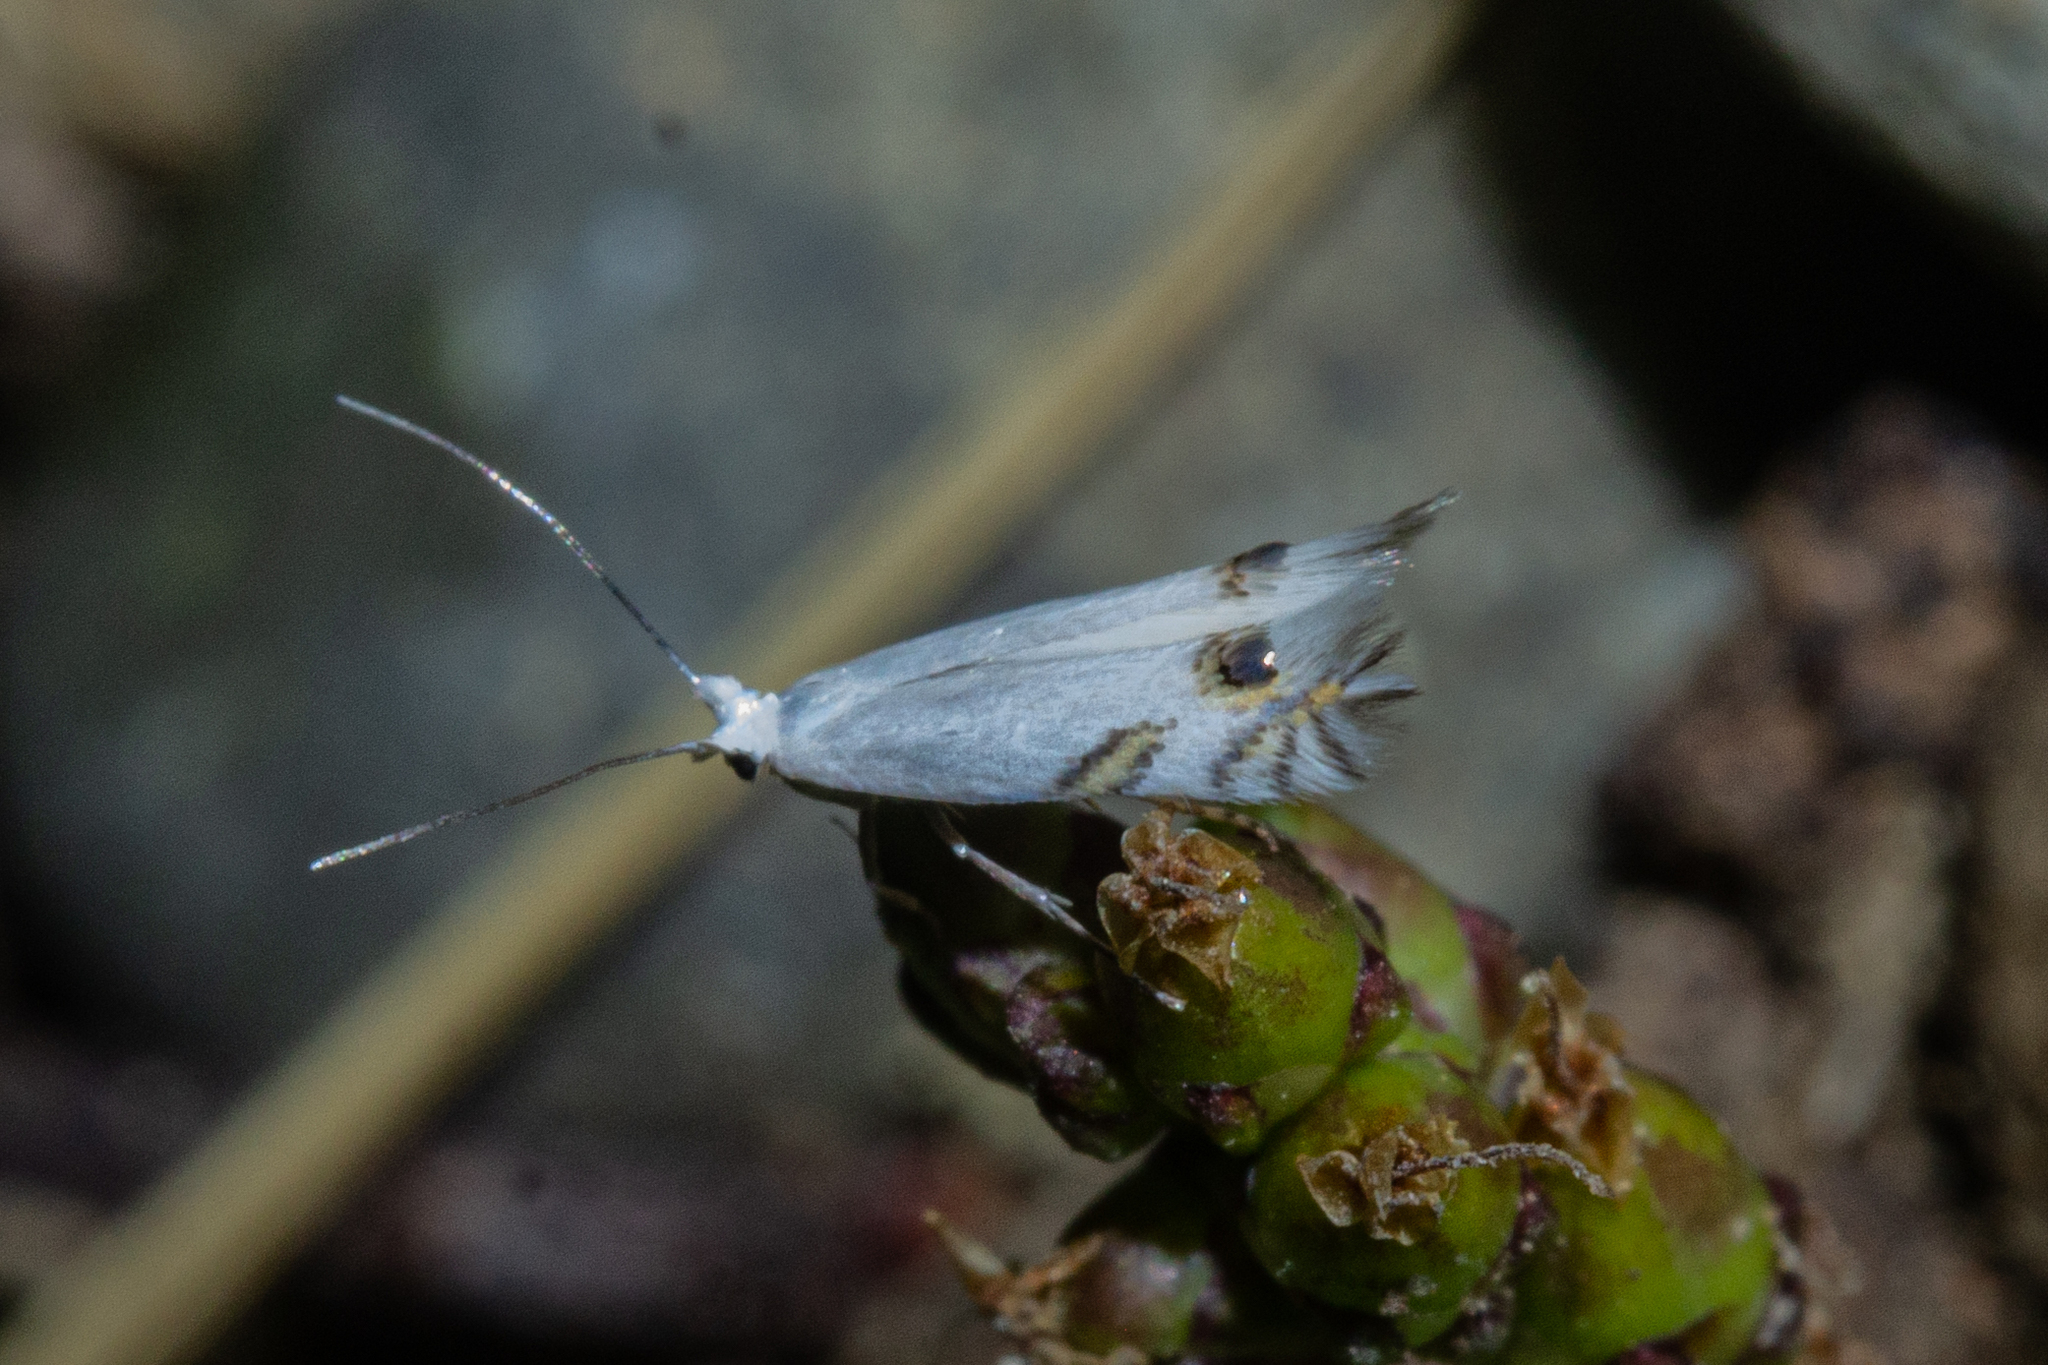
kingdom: Animalia
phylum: Arthropoda
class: Insecta
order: Lepidoptera
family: Lyonetiidae
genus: Leucoptera
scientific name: Leucoptera spartifoliella
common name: Scotch broom twig miner
